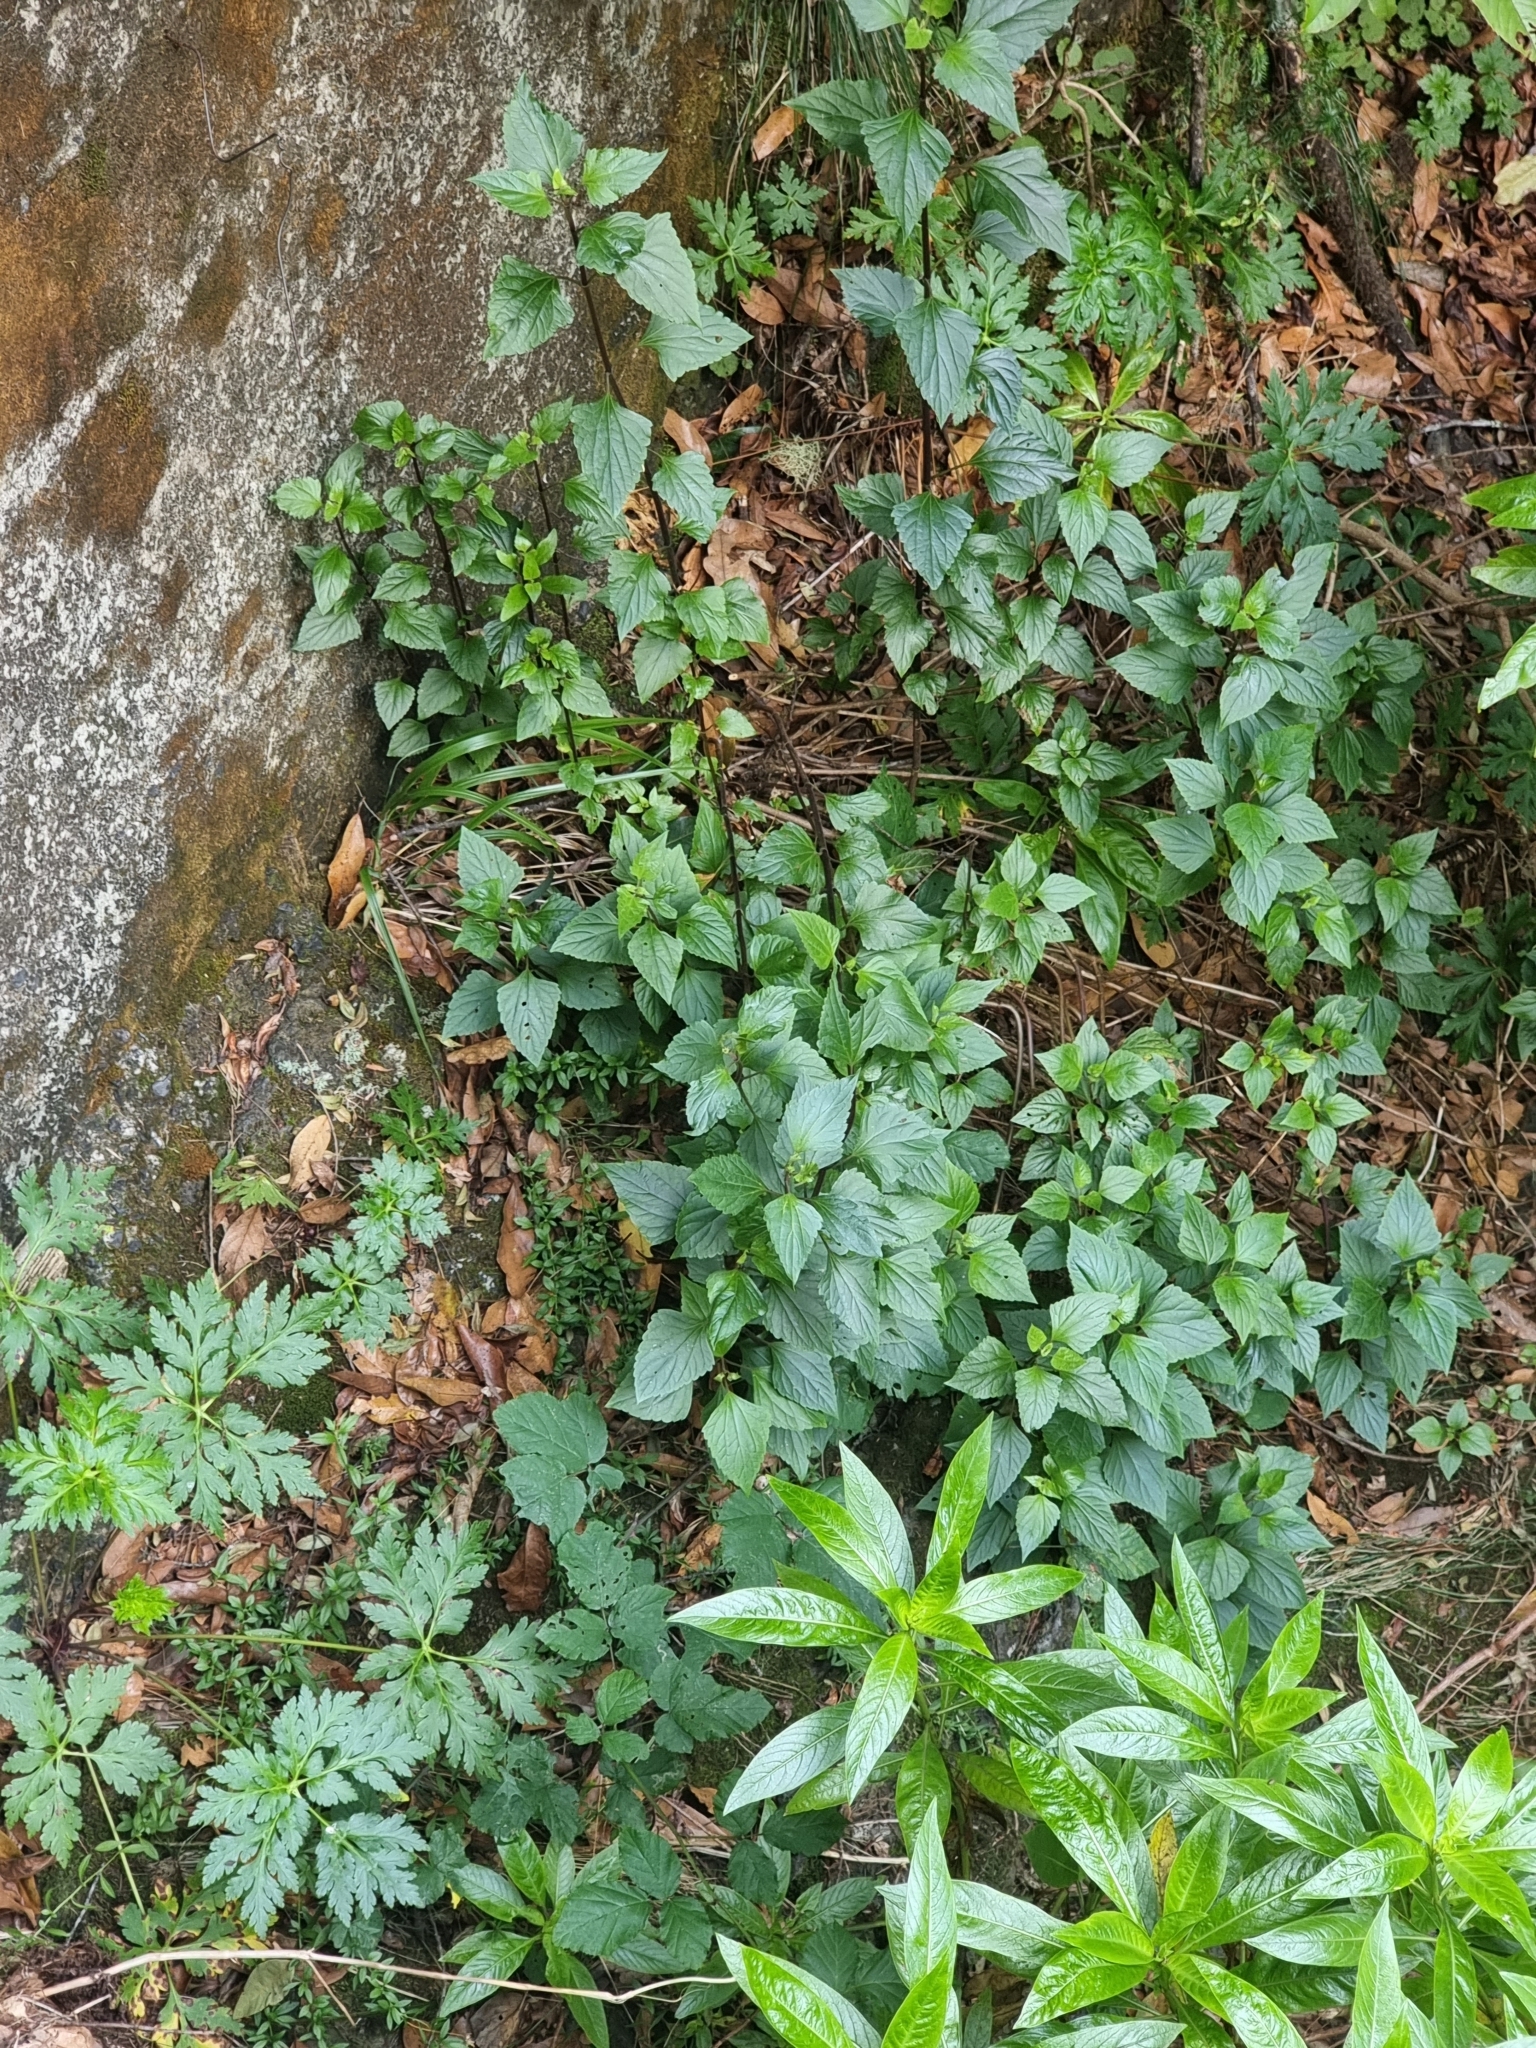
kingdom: Plantae
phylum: Tracheophyta
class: Magnoliopsida
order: Asterales
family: Asteraceae
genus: Ageratina
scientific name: Ageratina adenophora
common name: Sticky snakeroot
